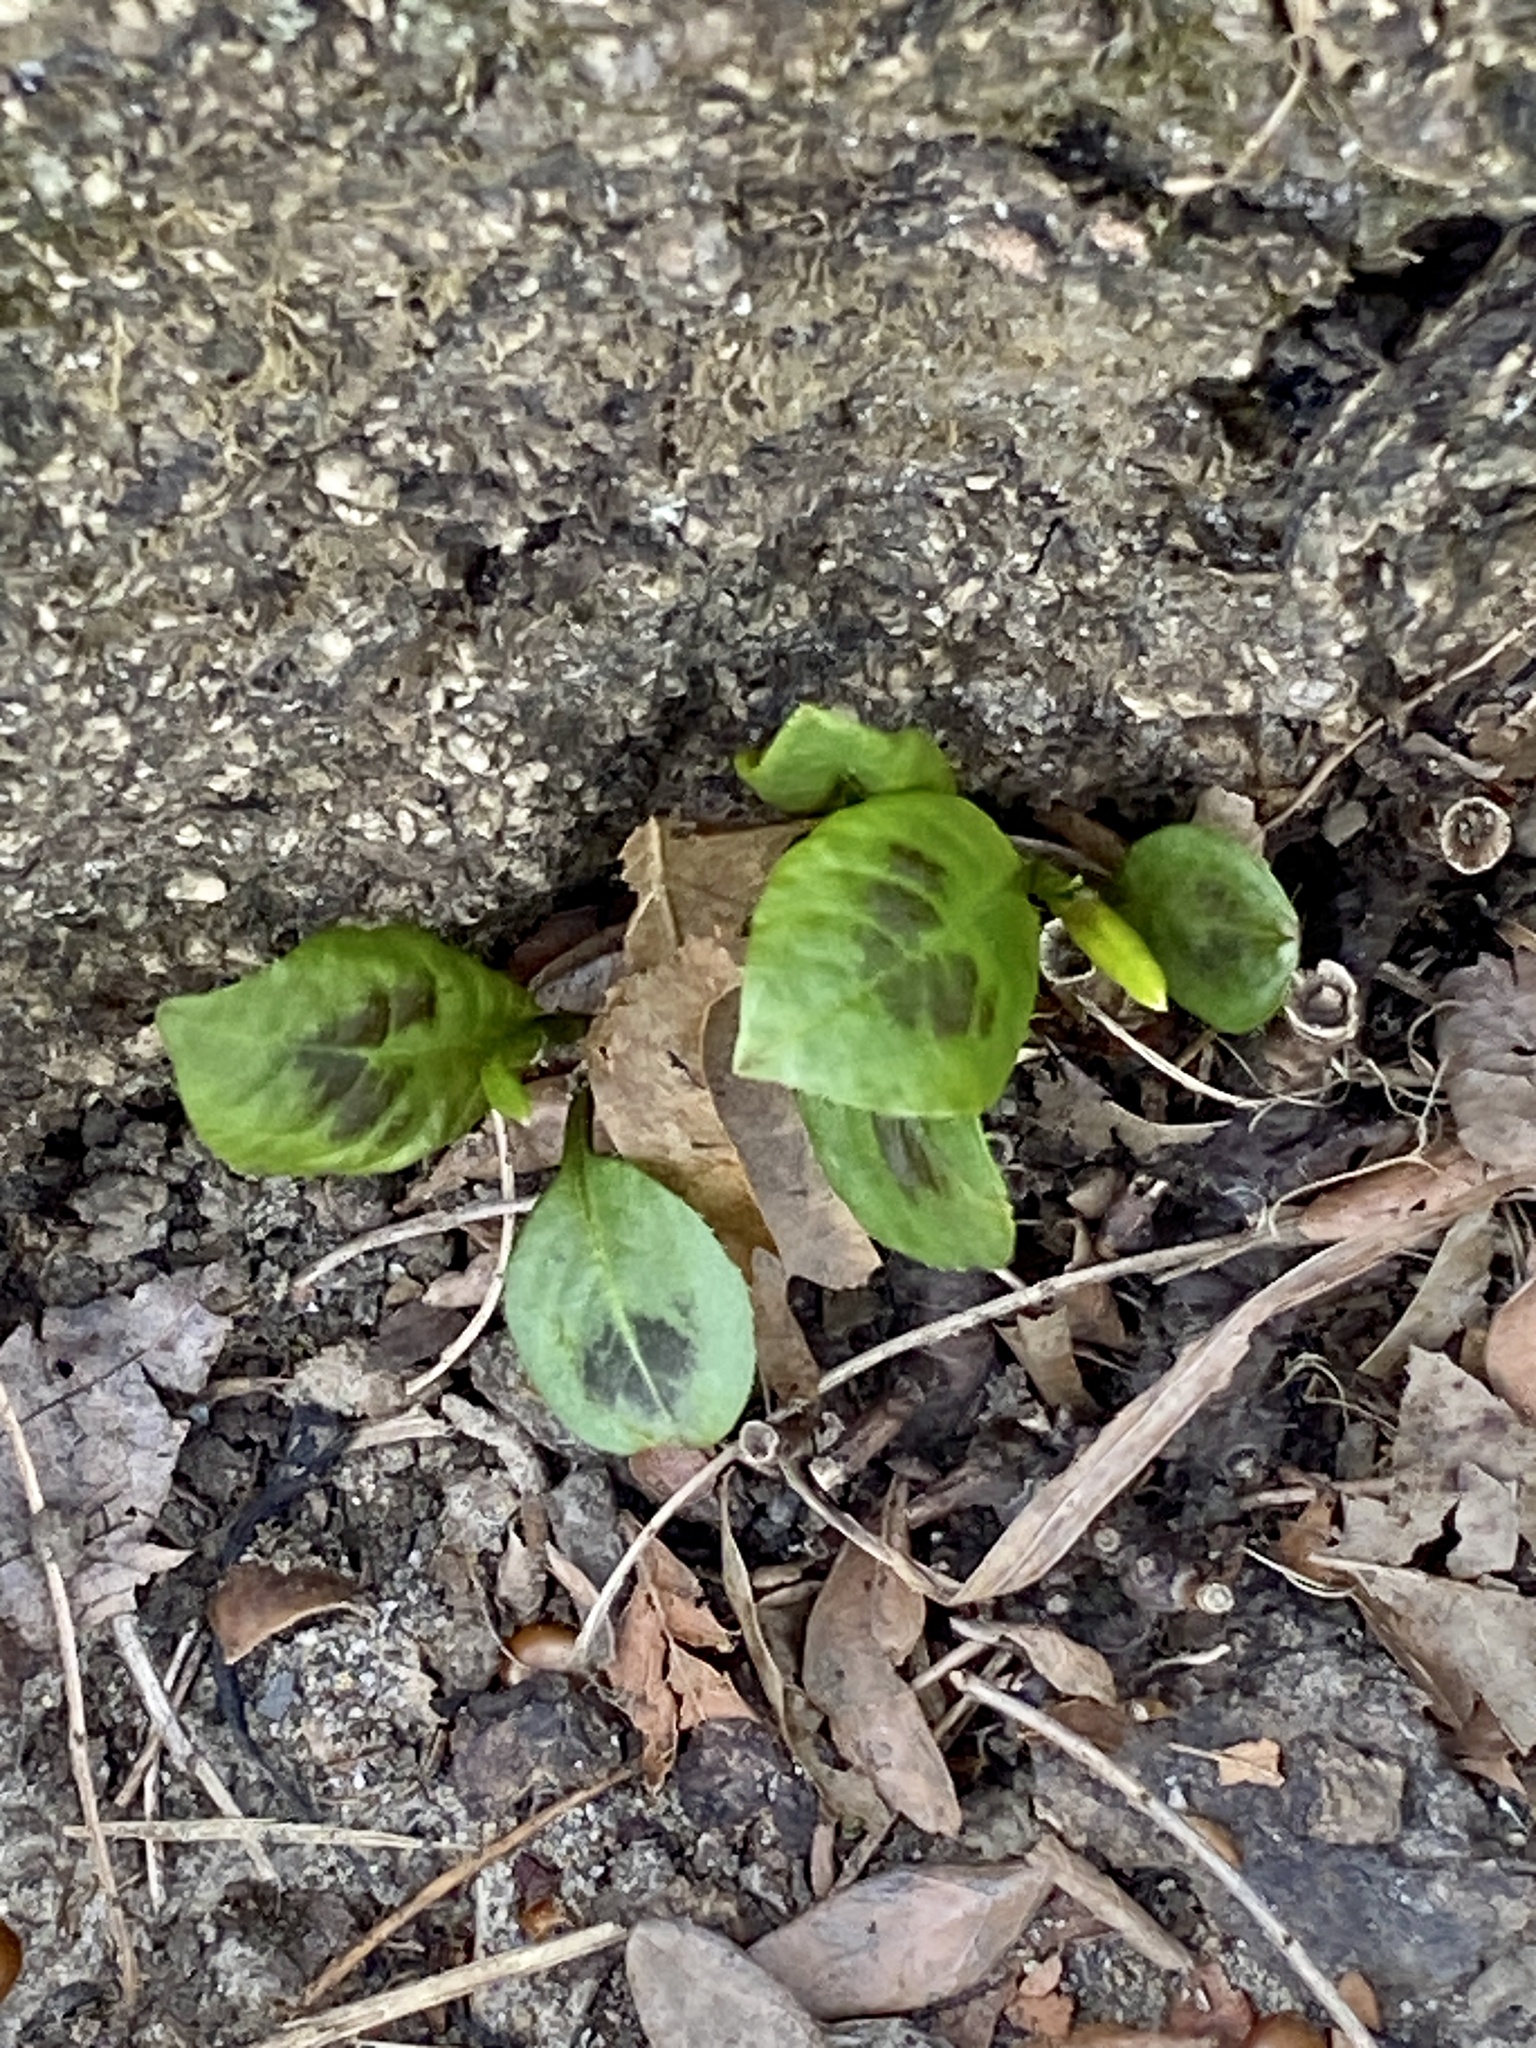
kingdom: Plantae
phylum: Tracheophyta
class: Magnoliopsida
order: Caryophyllales
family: Polygonaceae
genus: Persicaria
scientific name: Persicaria virginiana
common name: Jumpseed
